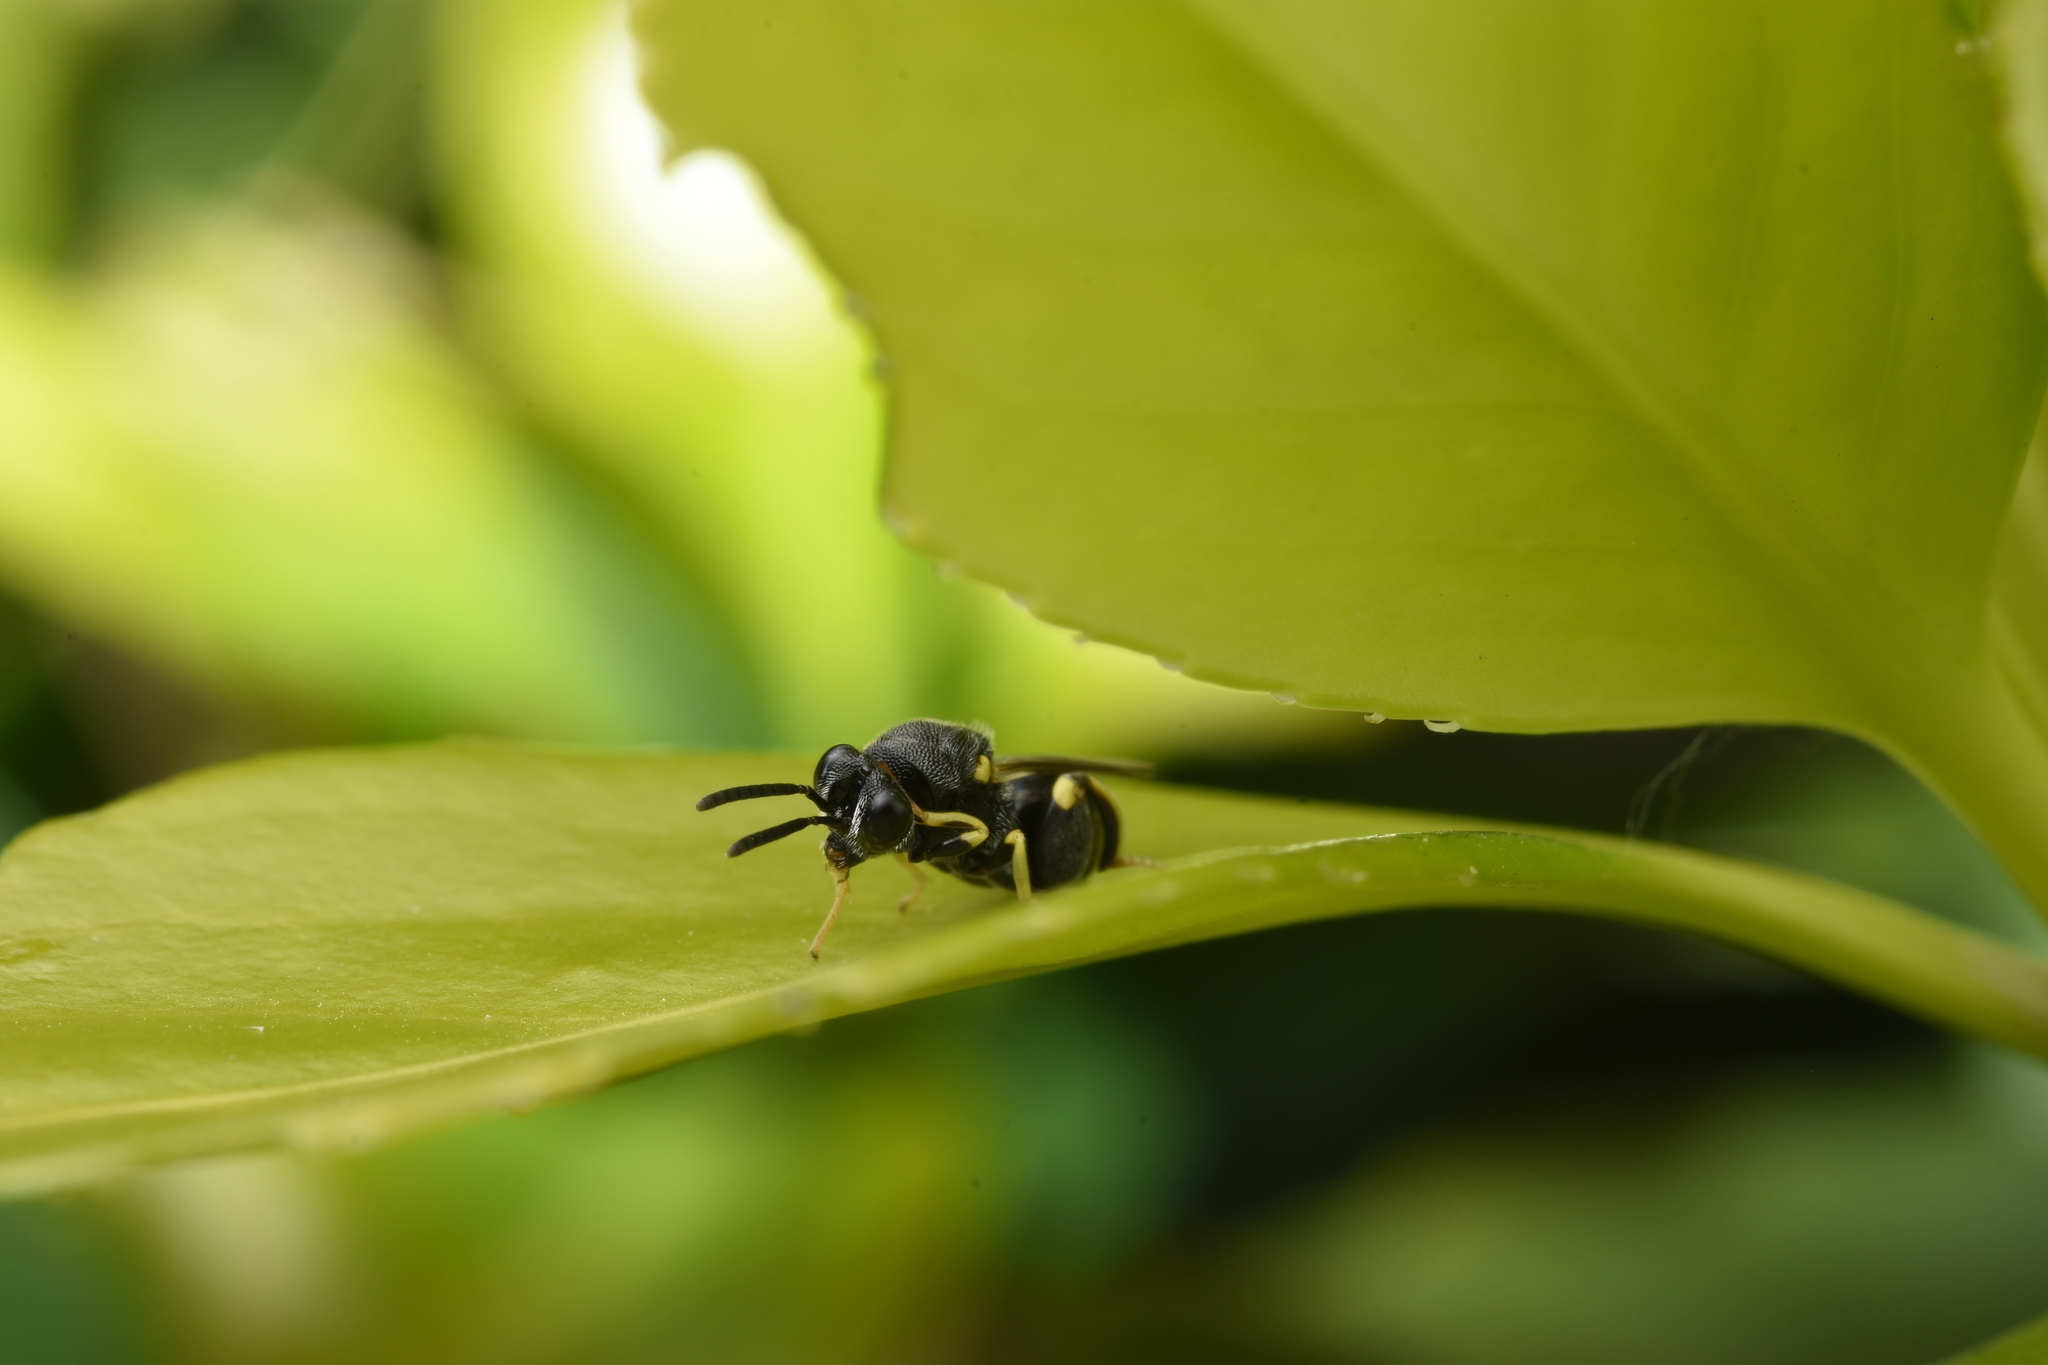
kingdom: Animalia
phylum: Arthropoda
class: Insecta
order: Hymenoptera
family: Chalcididae
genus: Brachymeria
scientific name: Brachymeria lasus
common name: Chalcid wasp
